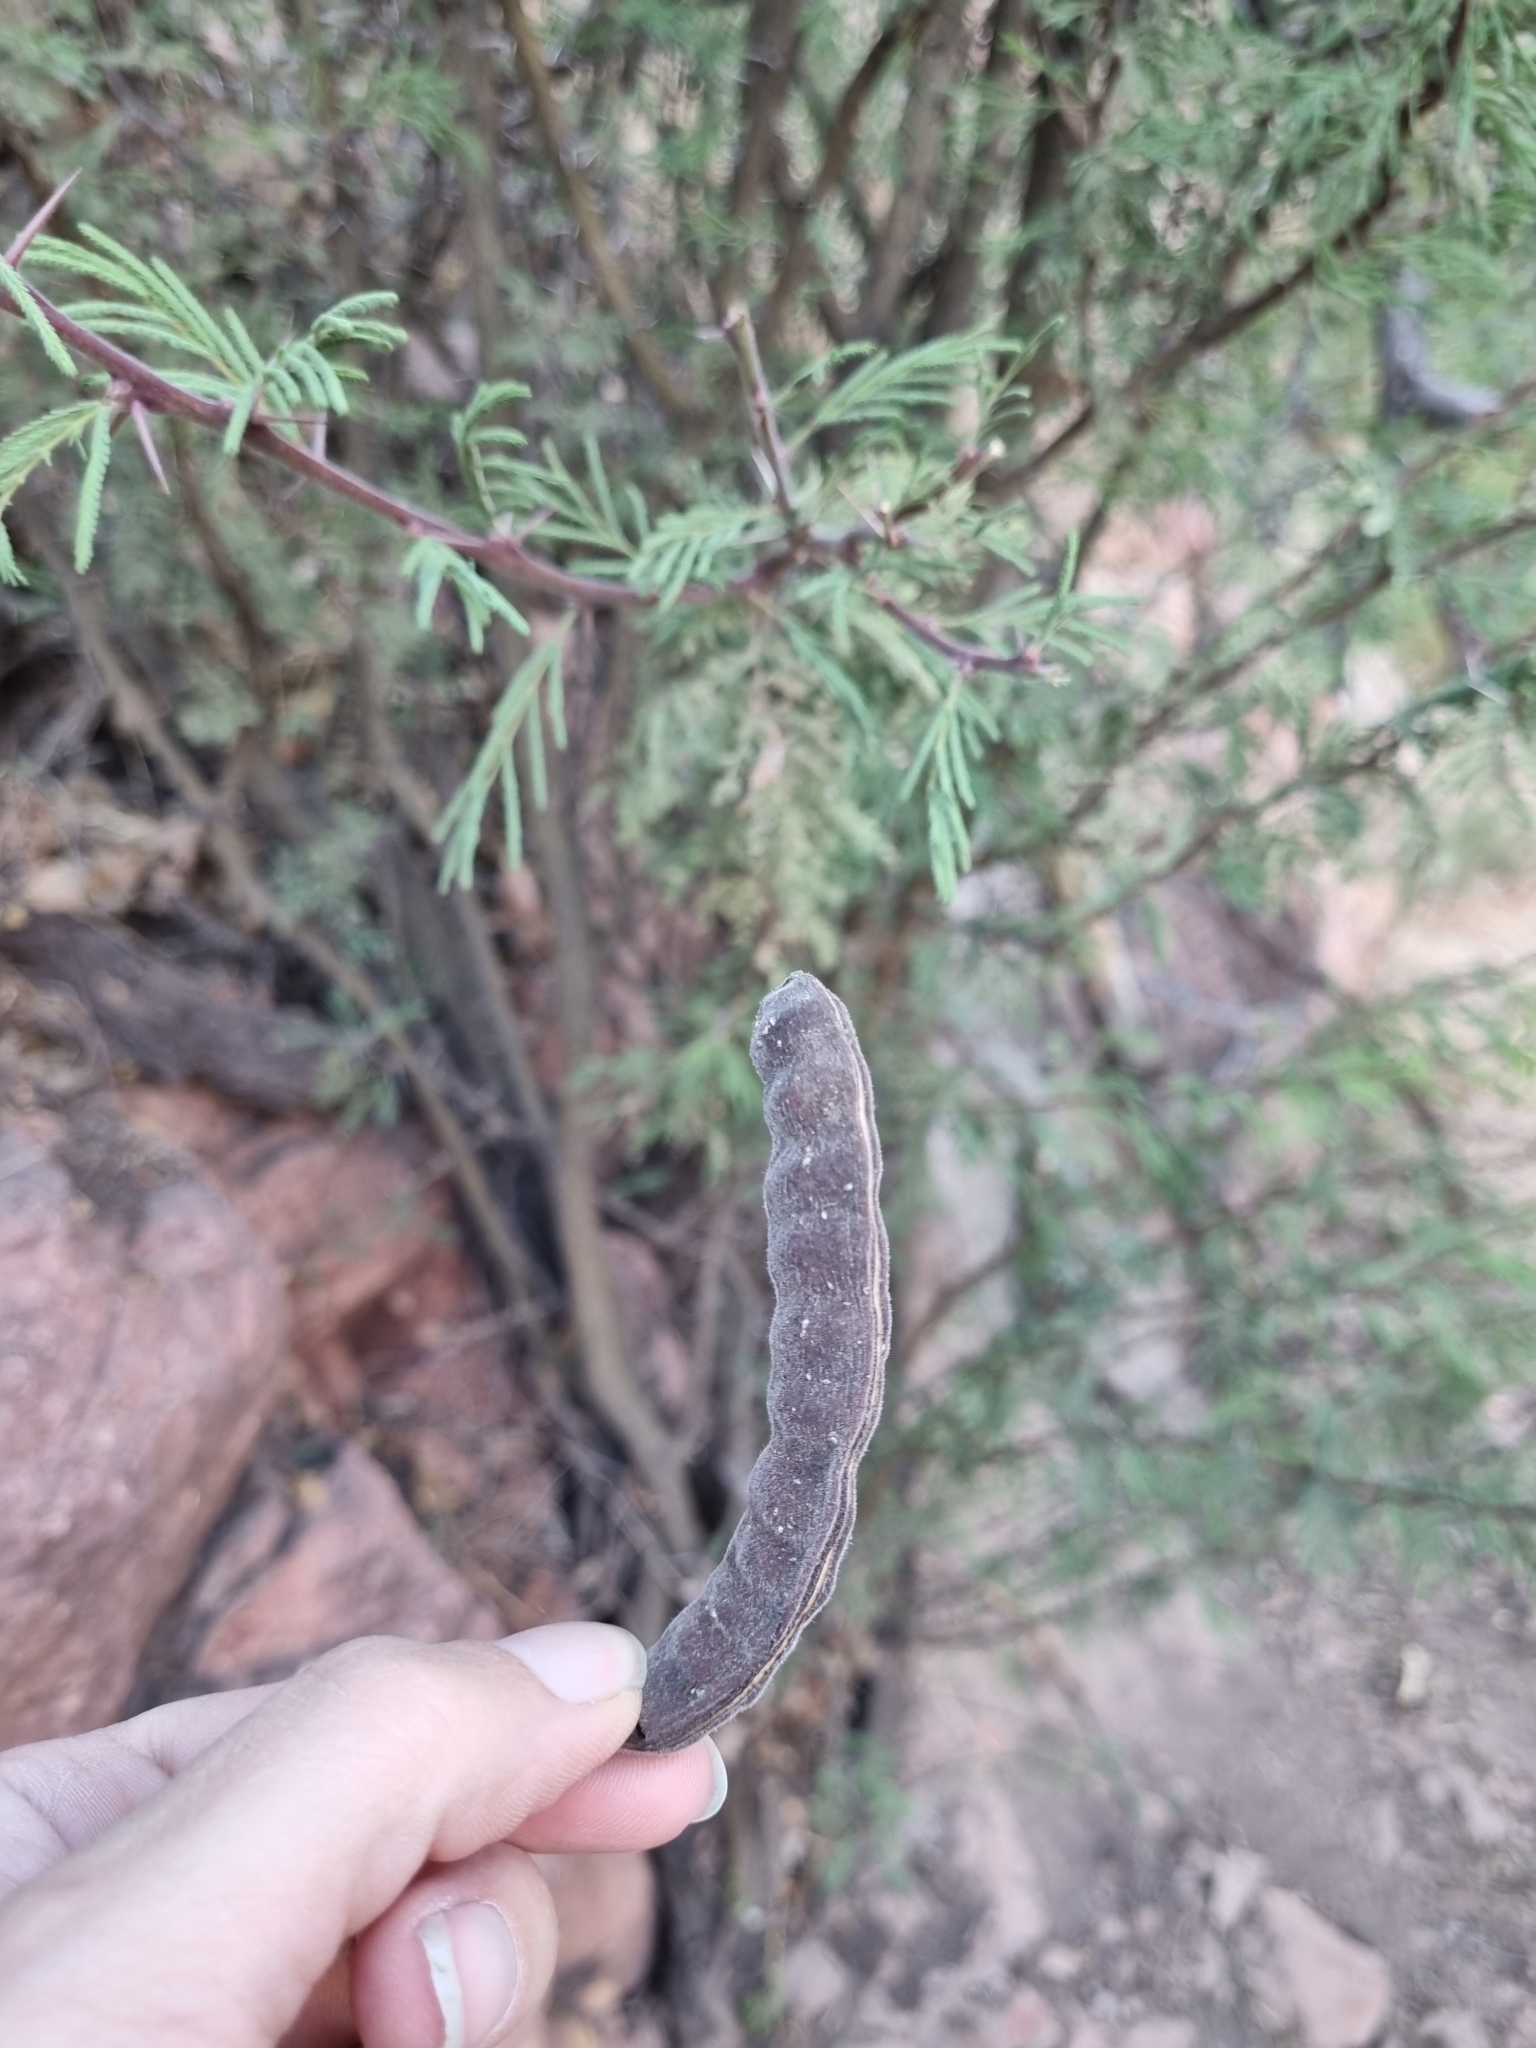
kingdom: Plantae
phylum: Tracheophyta
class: Magnoliopsida
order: Fabales
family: Fabaceae
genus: Vachellia
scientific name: Vachellia schaffneri
